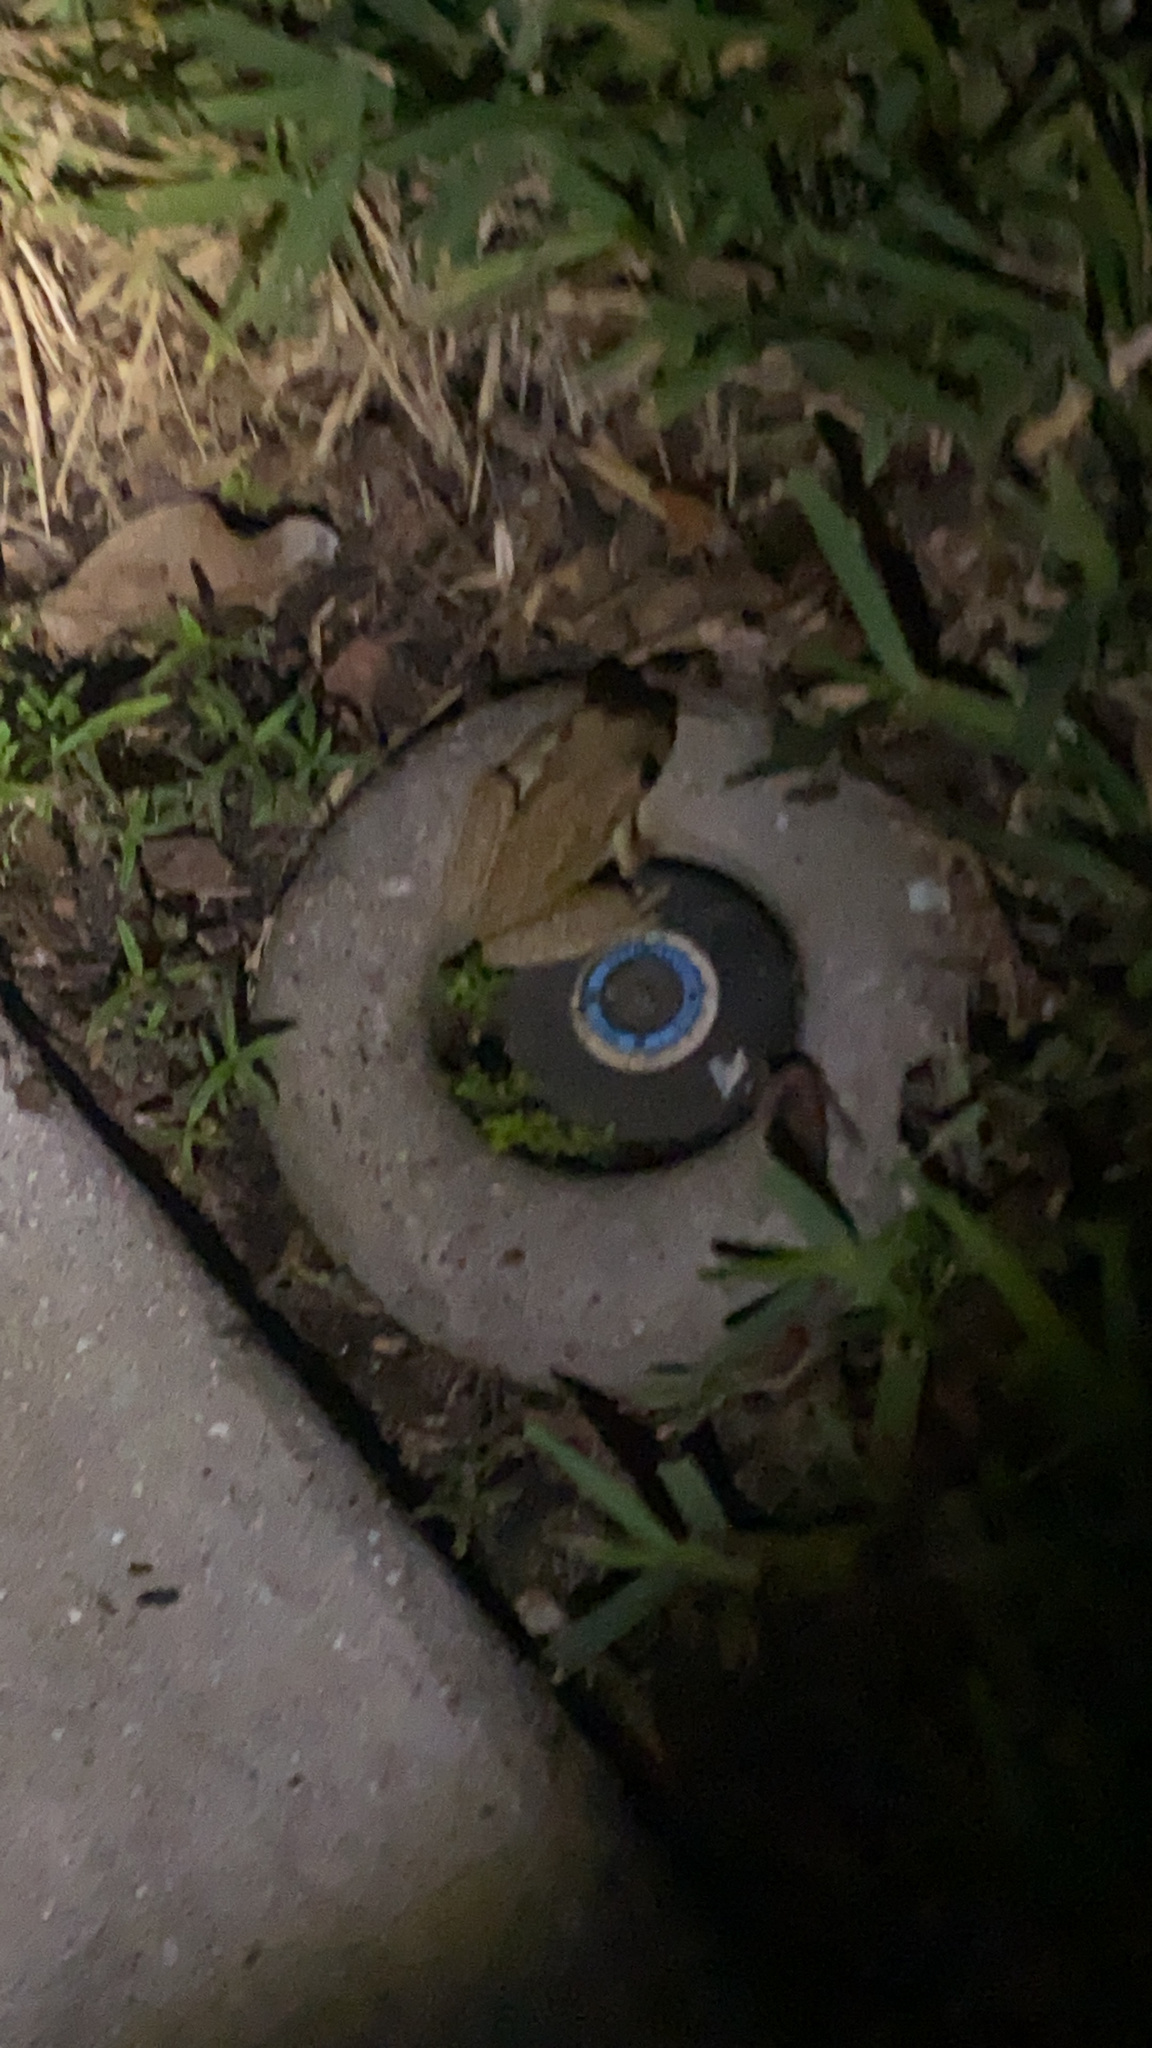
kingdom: Animalia
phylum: Chordata
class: Amphibia
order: Anura
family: Hylidae
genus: Osteopilus
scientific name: Osteopilus septentrionalis
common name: Cuban treefrog
